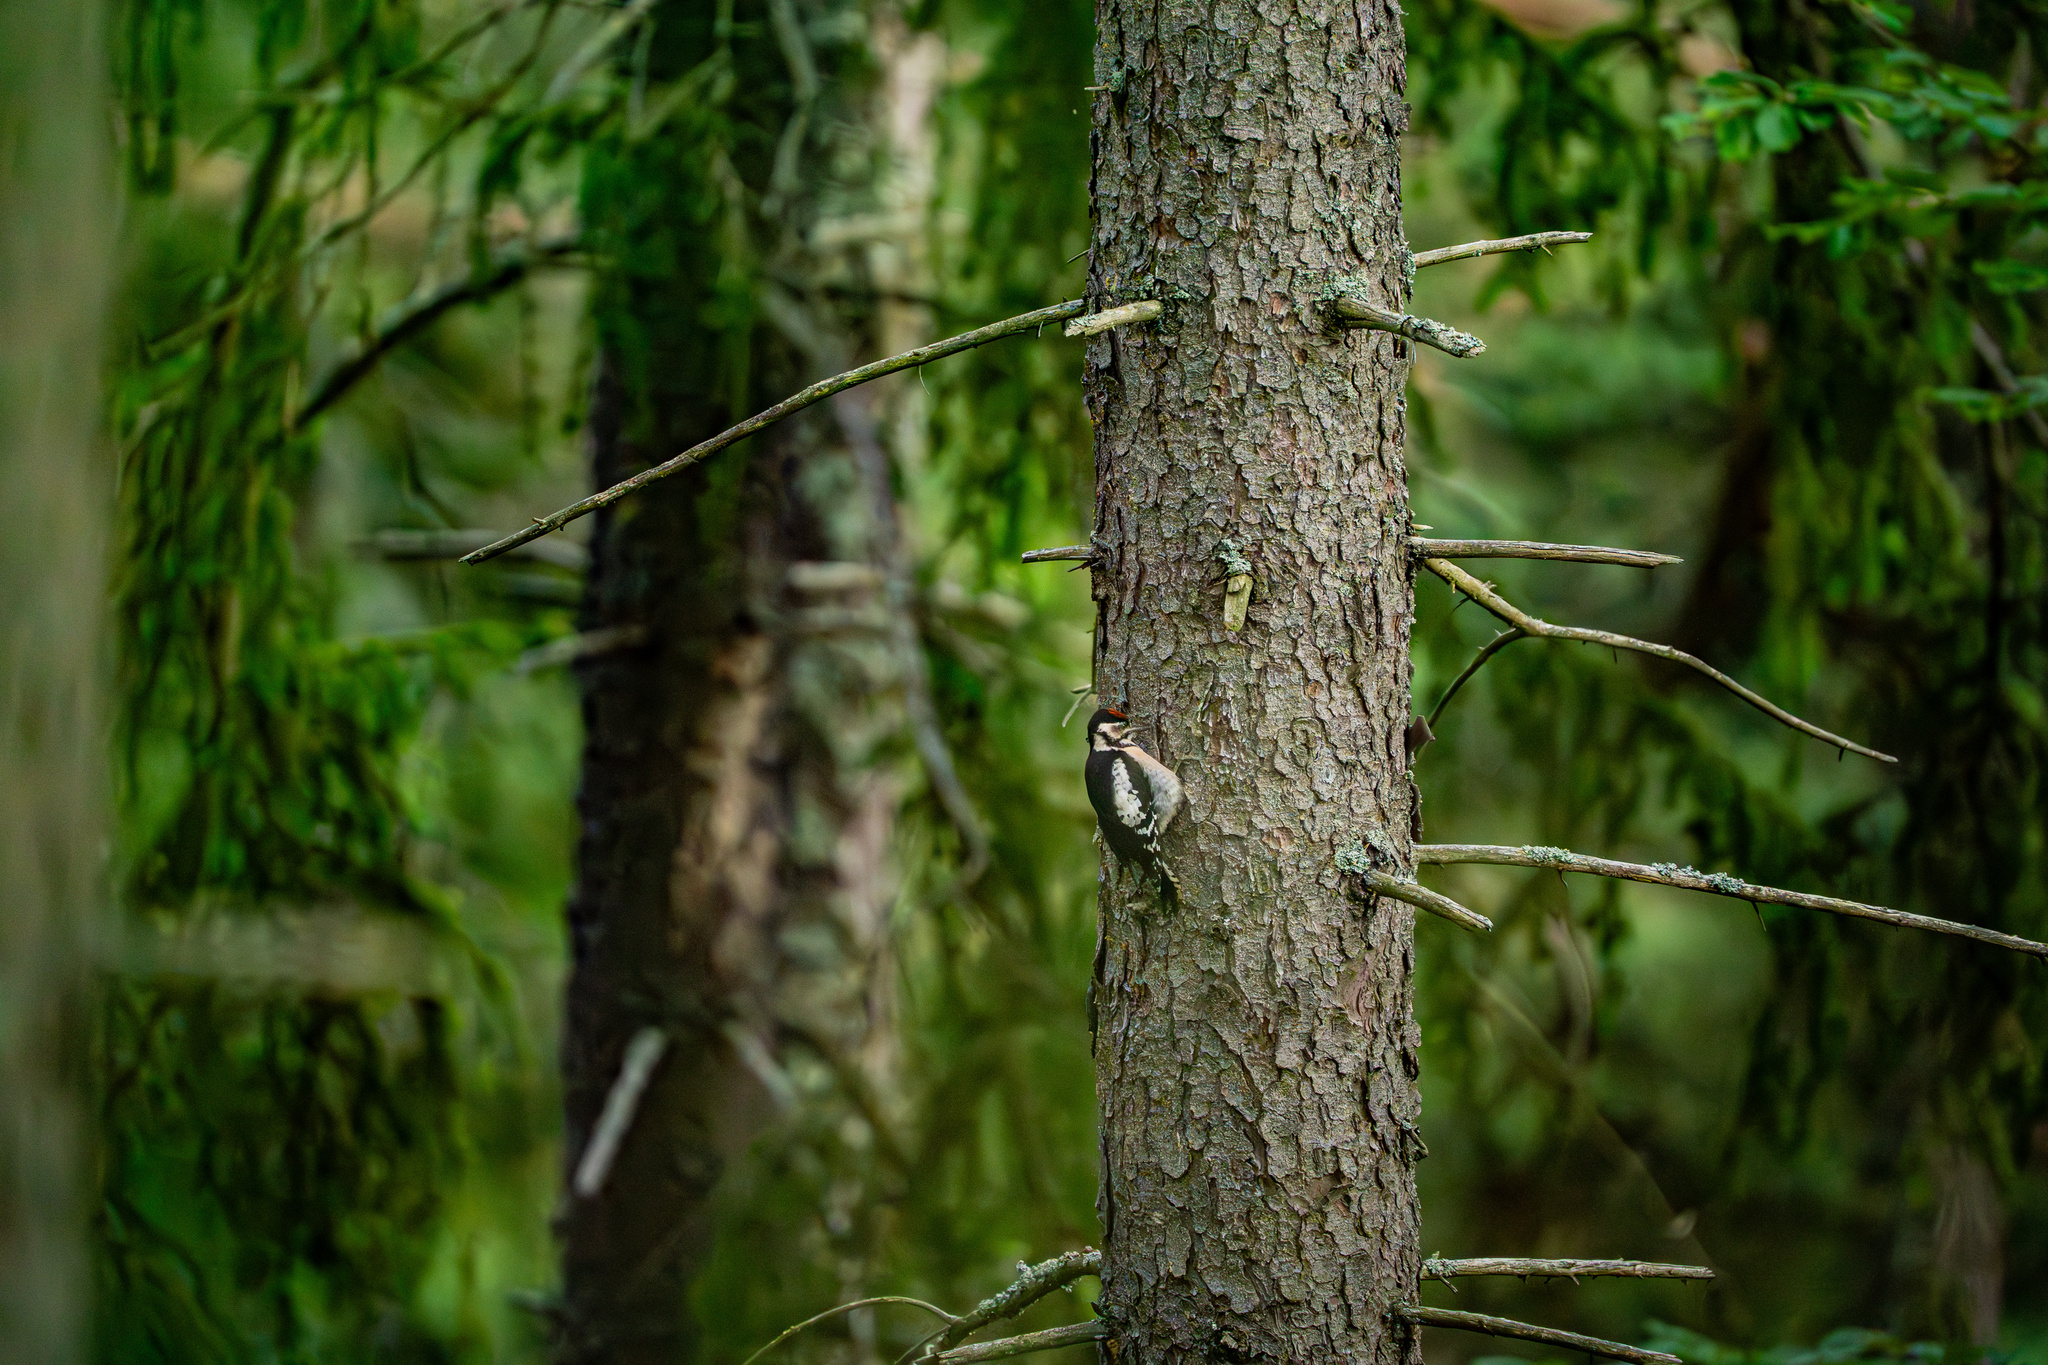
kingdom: Animalia
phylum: Chordata
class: Aves
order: Piciformes
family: Picidae
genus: Dendrocopos
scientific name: Dendrocopos major
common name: Great spotted woodpecker
